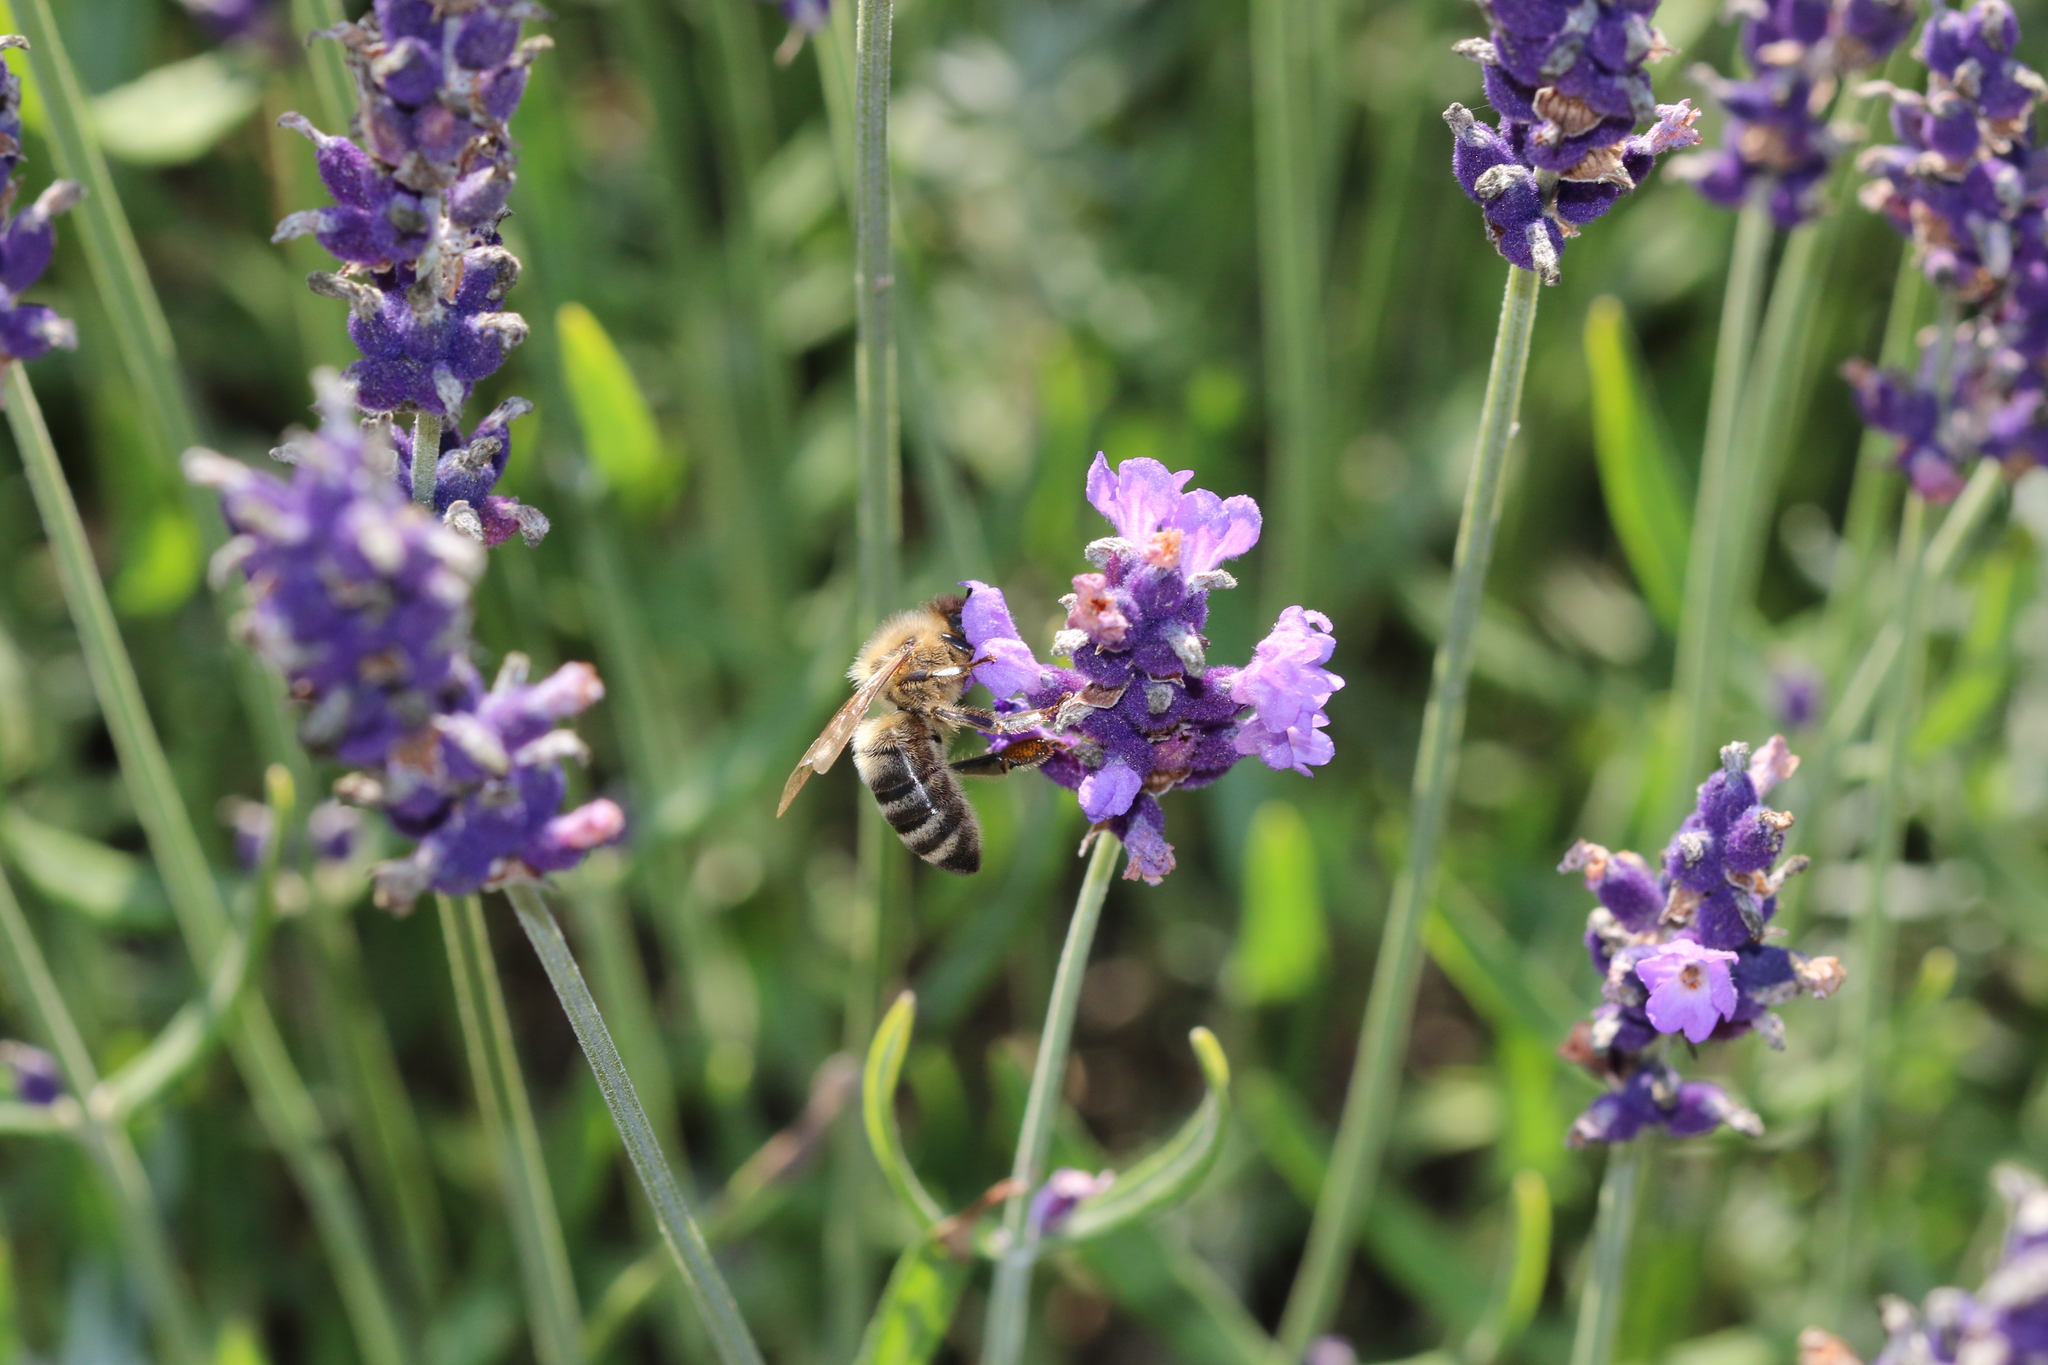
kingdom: Animalia
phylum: Arthropoda
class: Insecta
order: Hymenoptera
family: Apidae
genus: Apis
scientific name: Apis mellifera
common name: Honey bee
